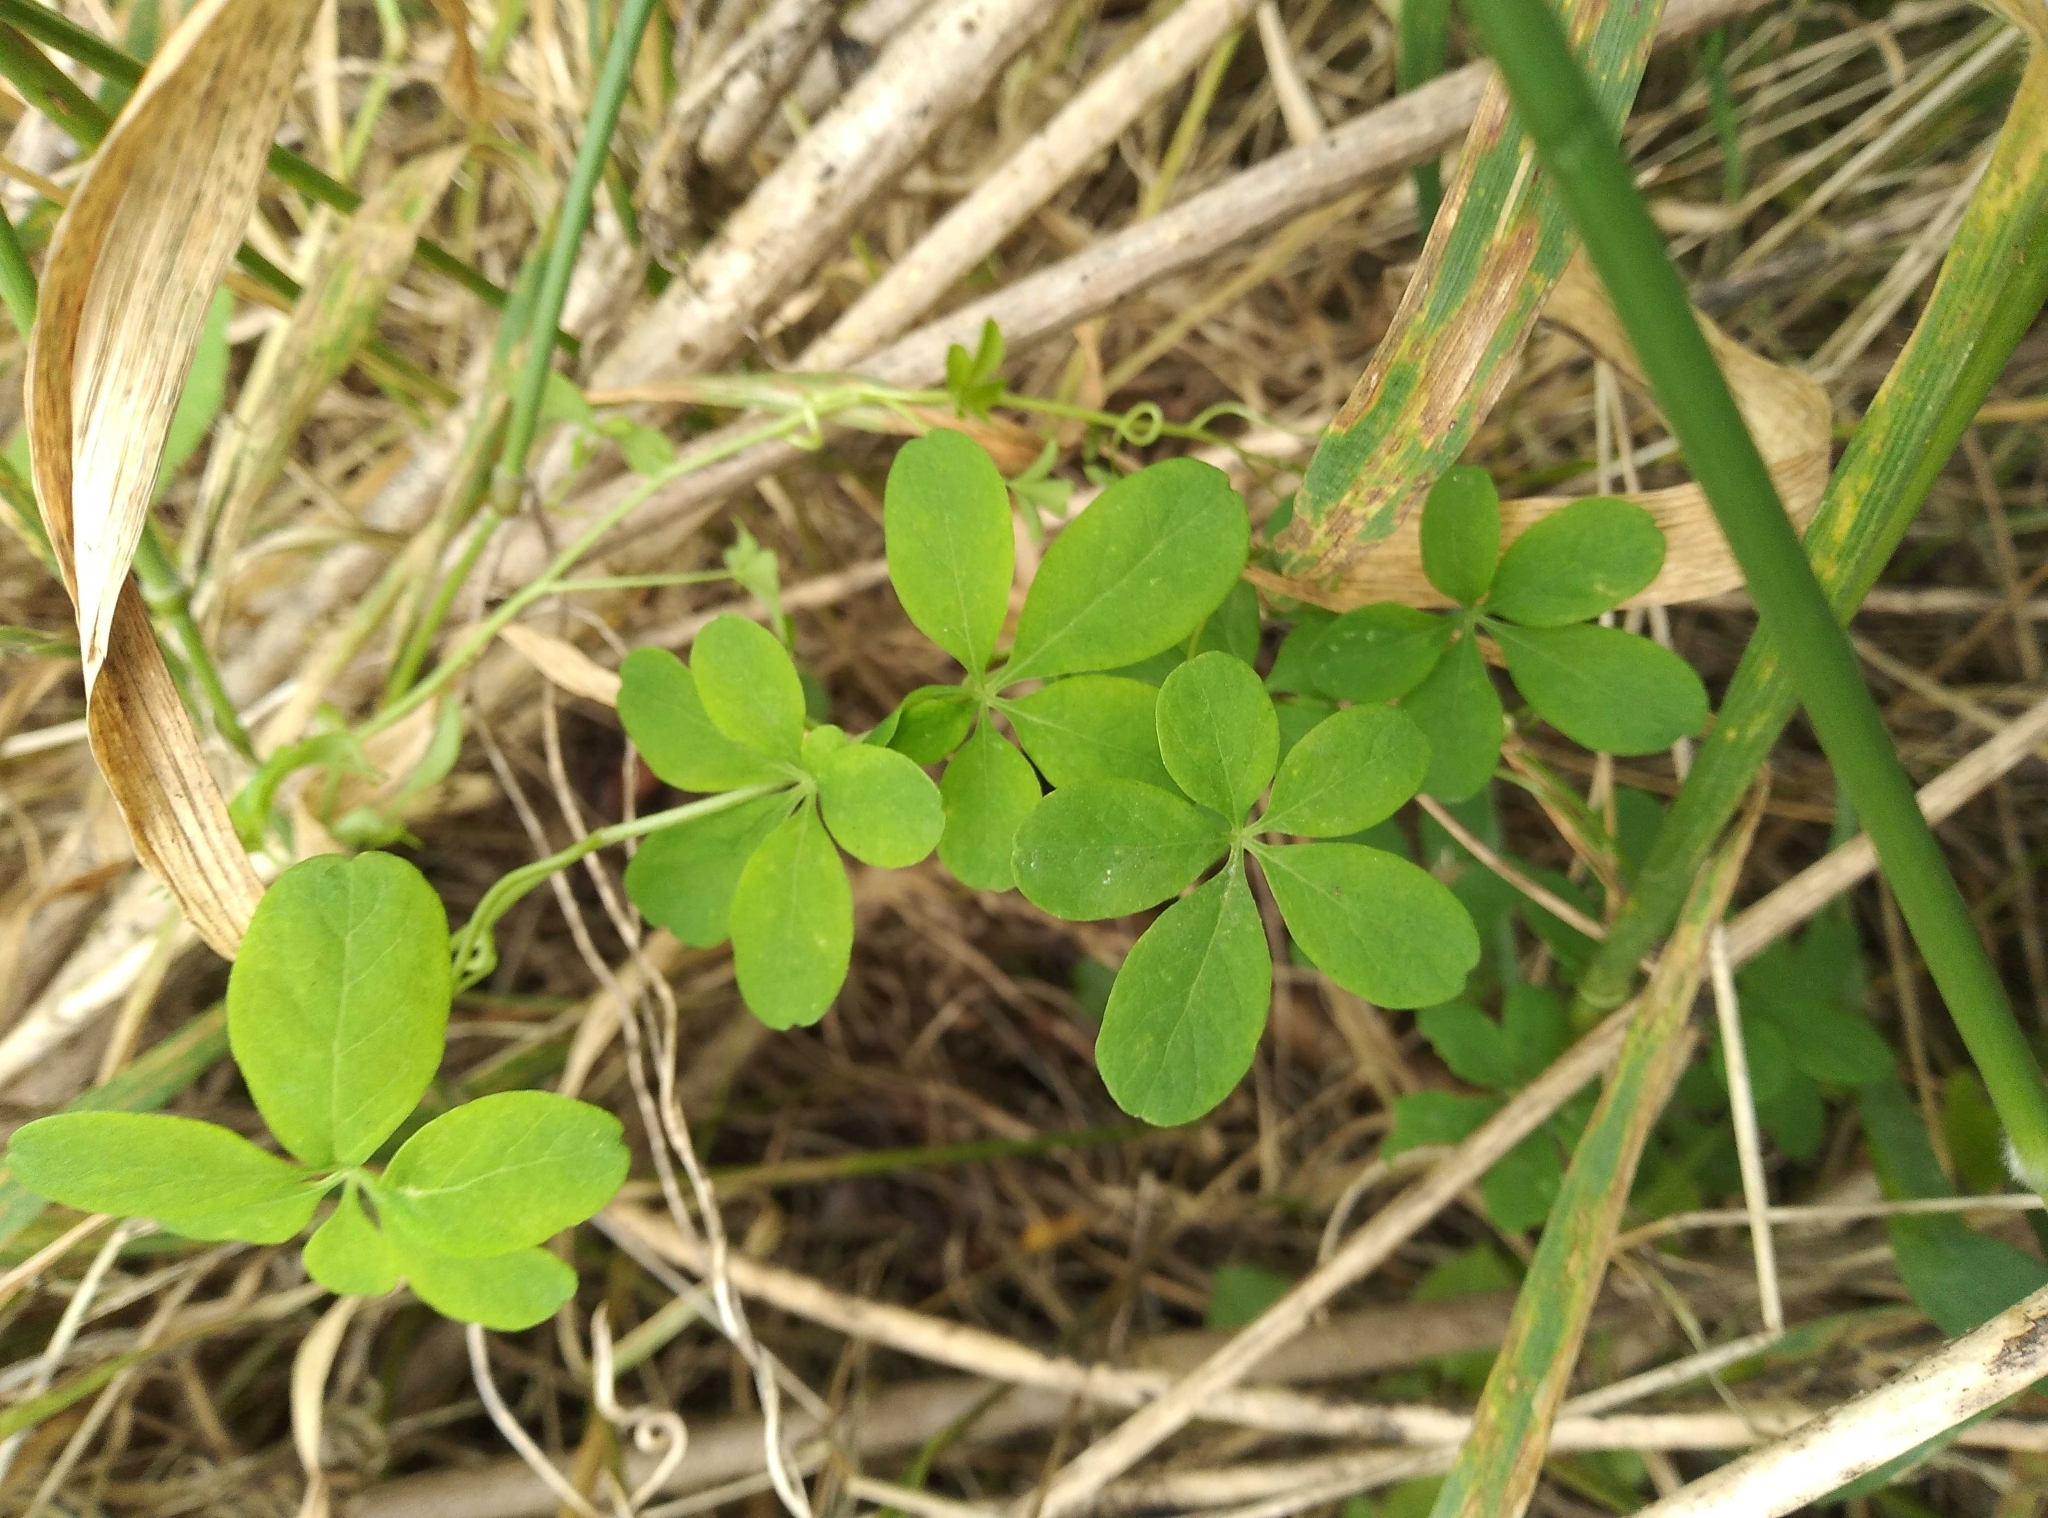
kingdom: Plantae
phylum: Tracheophyta
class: Magnoliopsida
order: Brassicales
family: Tropaeolaceae
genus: Tropaeolum
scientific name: Tropaeolum speciosum
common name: Flame nasturtium
